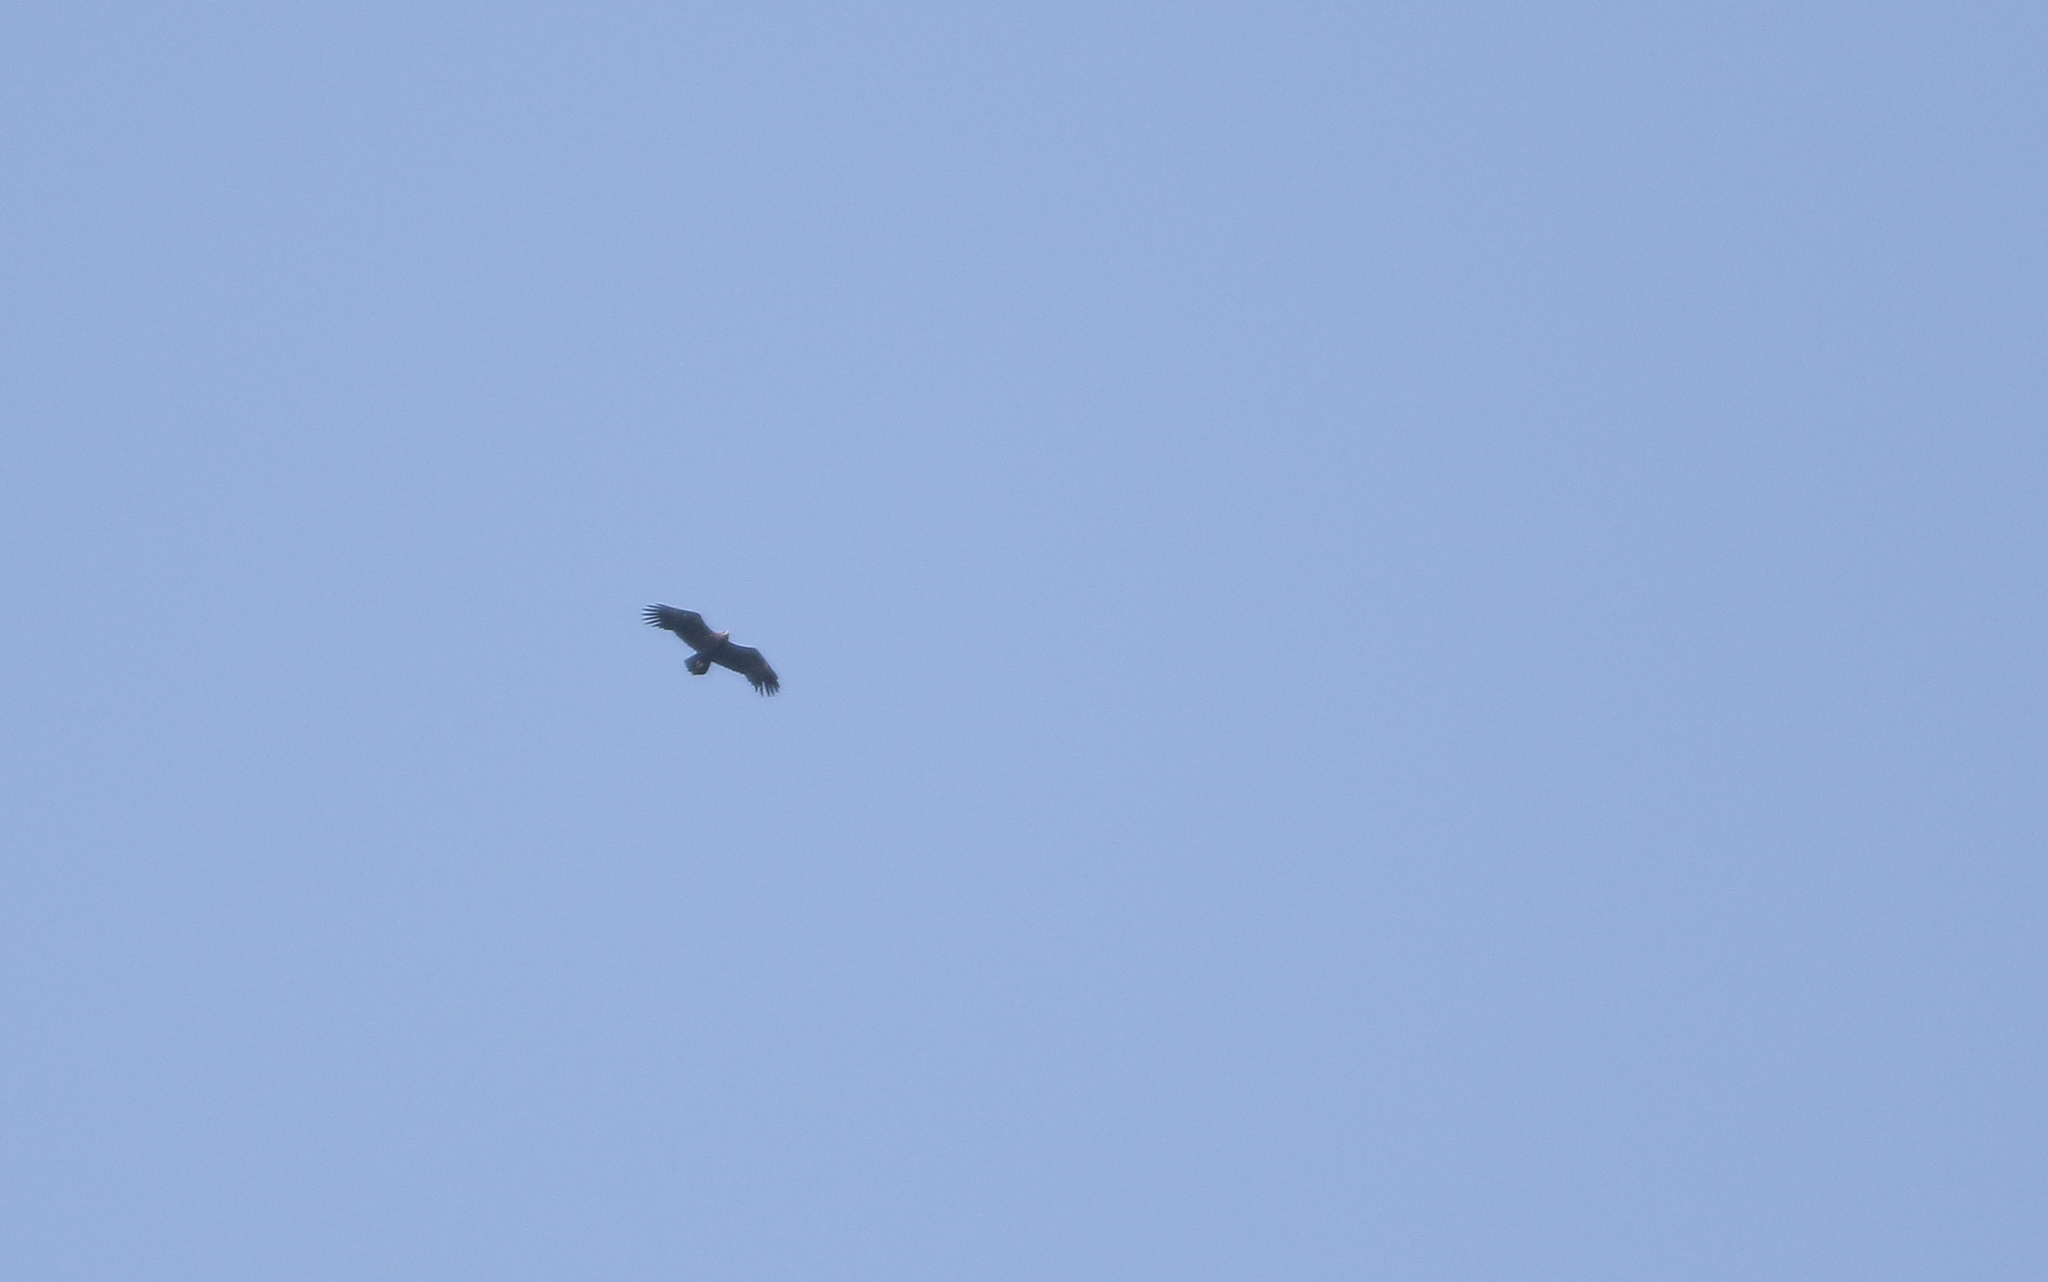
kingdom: Animalia
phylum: Chordata
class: Aves
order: Accipitriformes
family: Accipitridae
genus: Aquila
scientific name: Aquila clanga
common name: Greater spotted eagle
